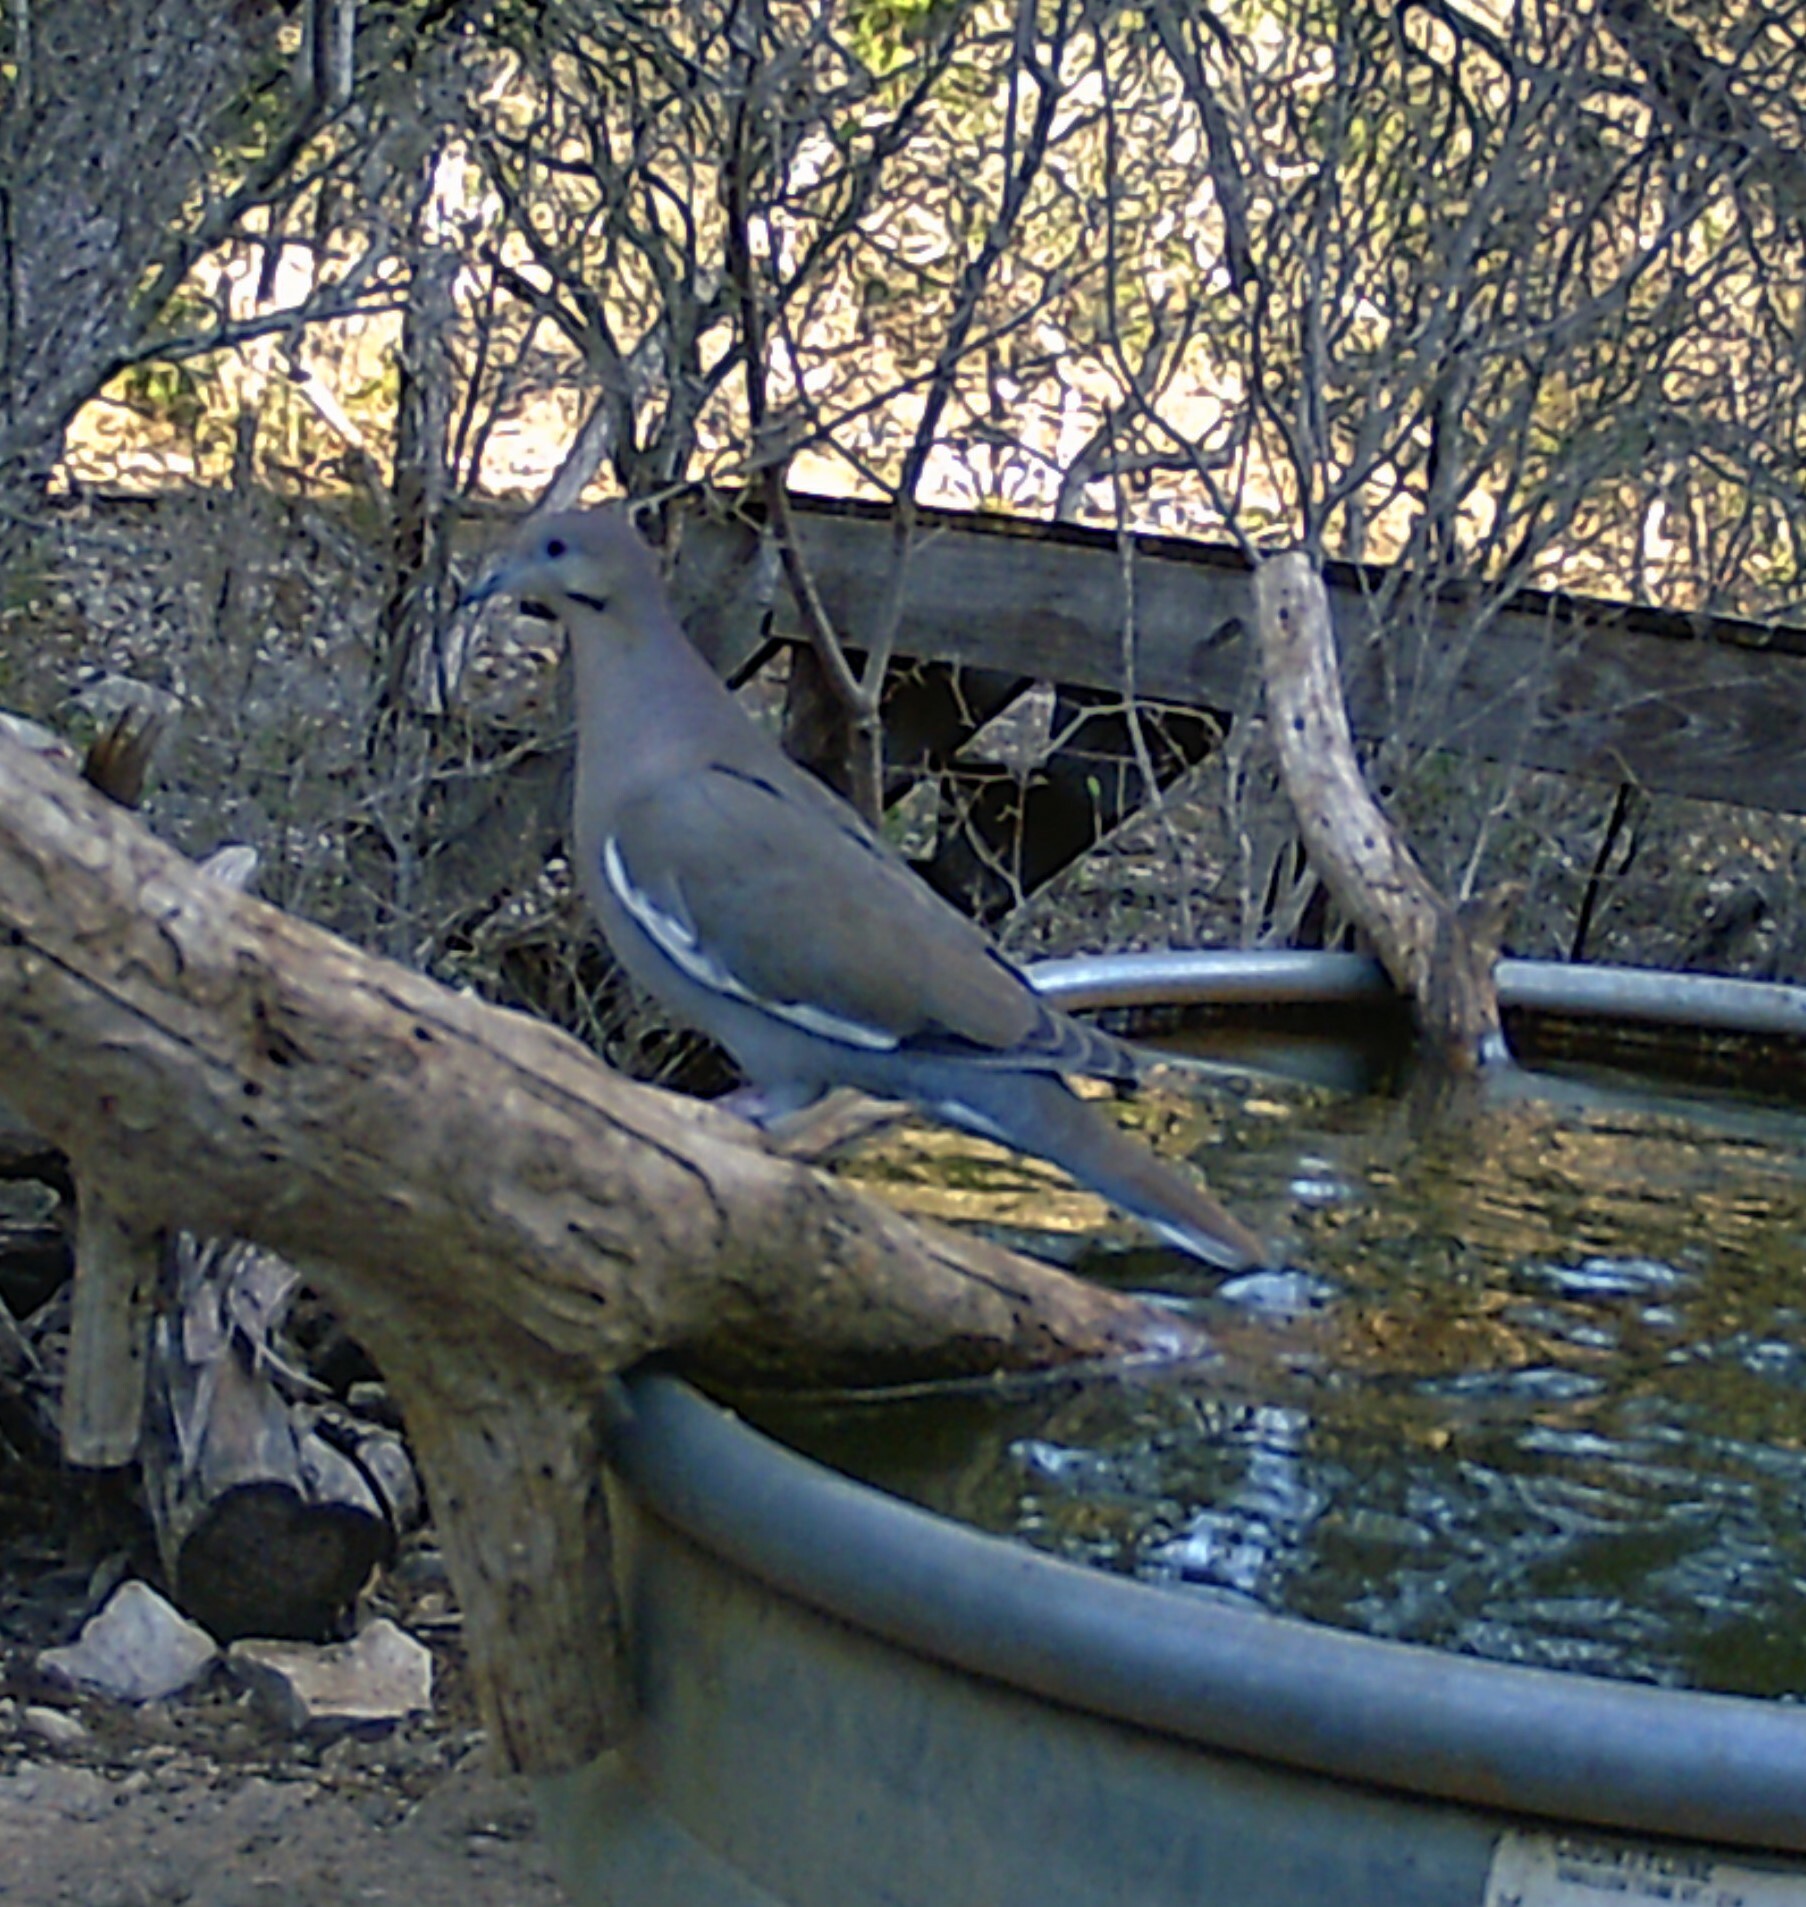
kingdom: Animalia
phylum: Chordata
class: Aves
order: Columbiformes
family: Columbidae
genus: Zenaida
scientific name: Zenaida asiatica
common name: White-winged dove
